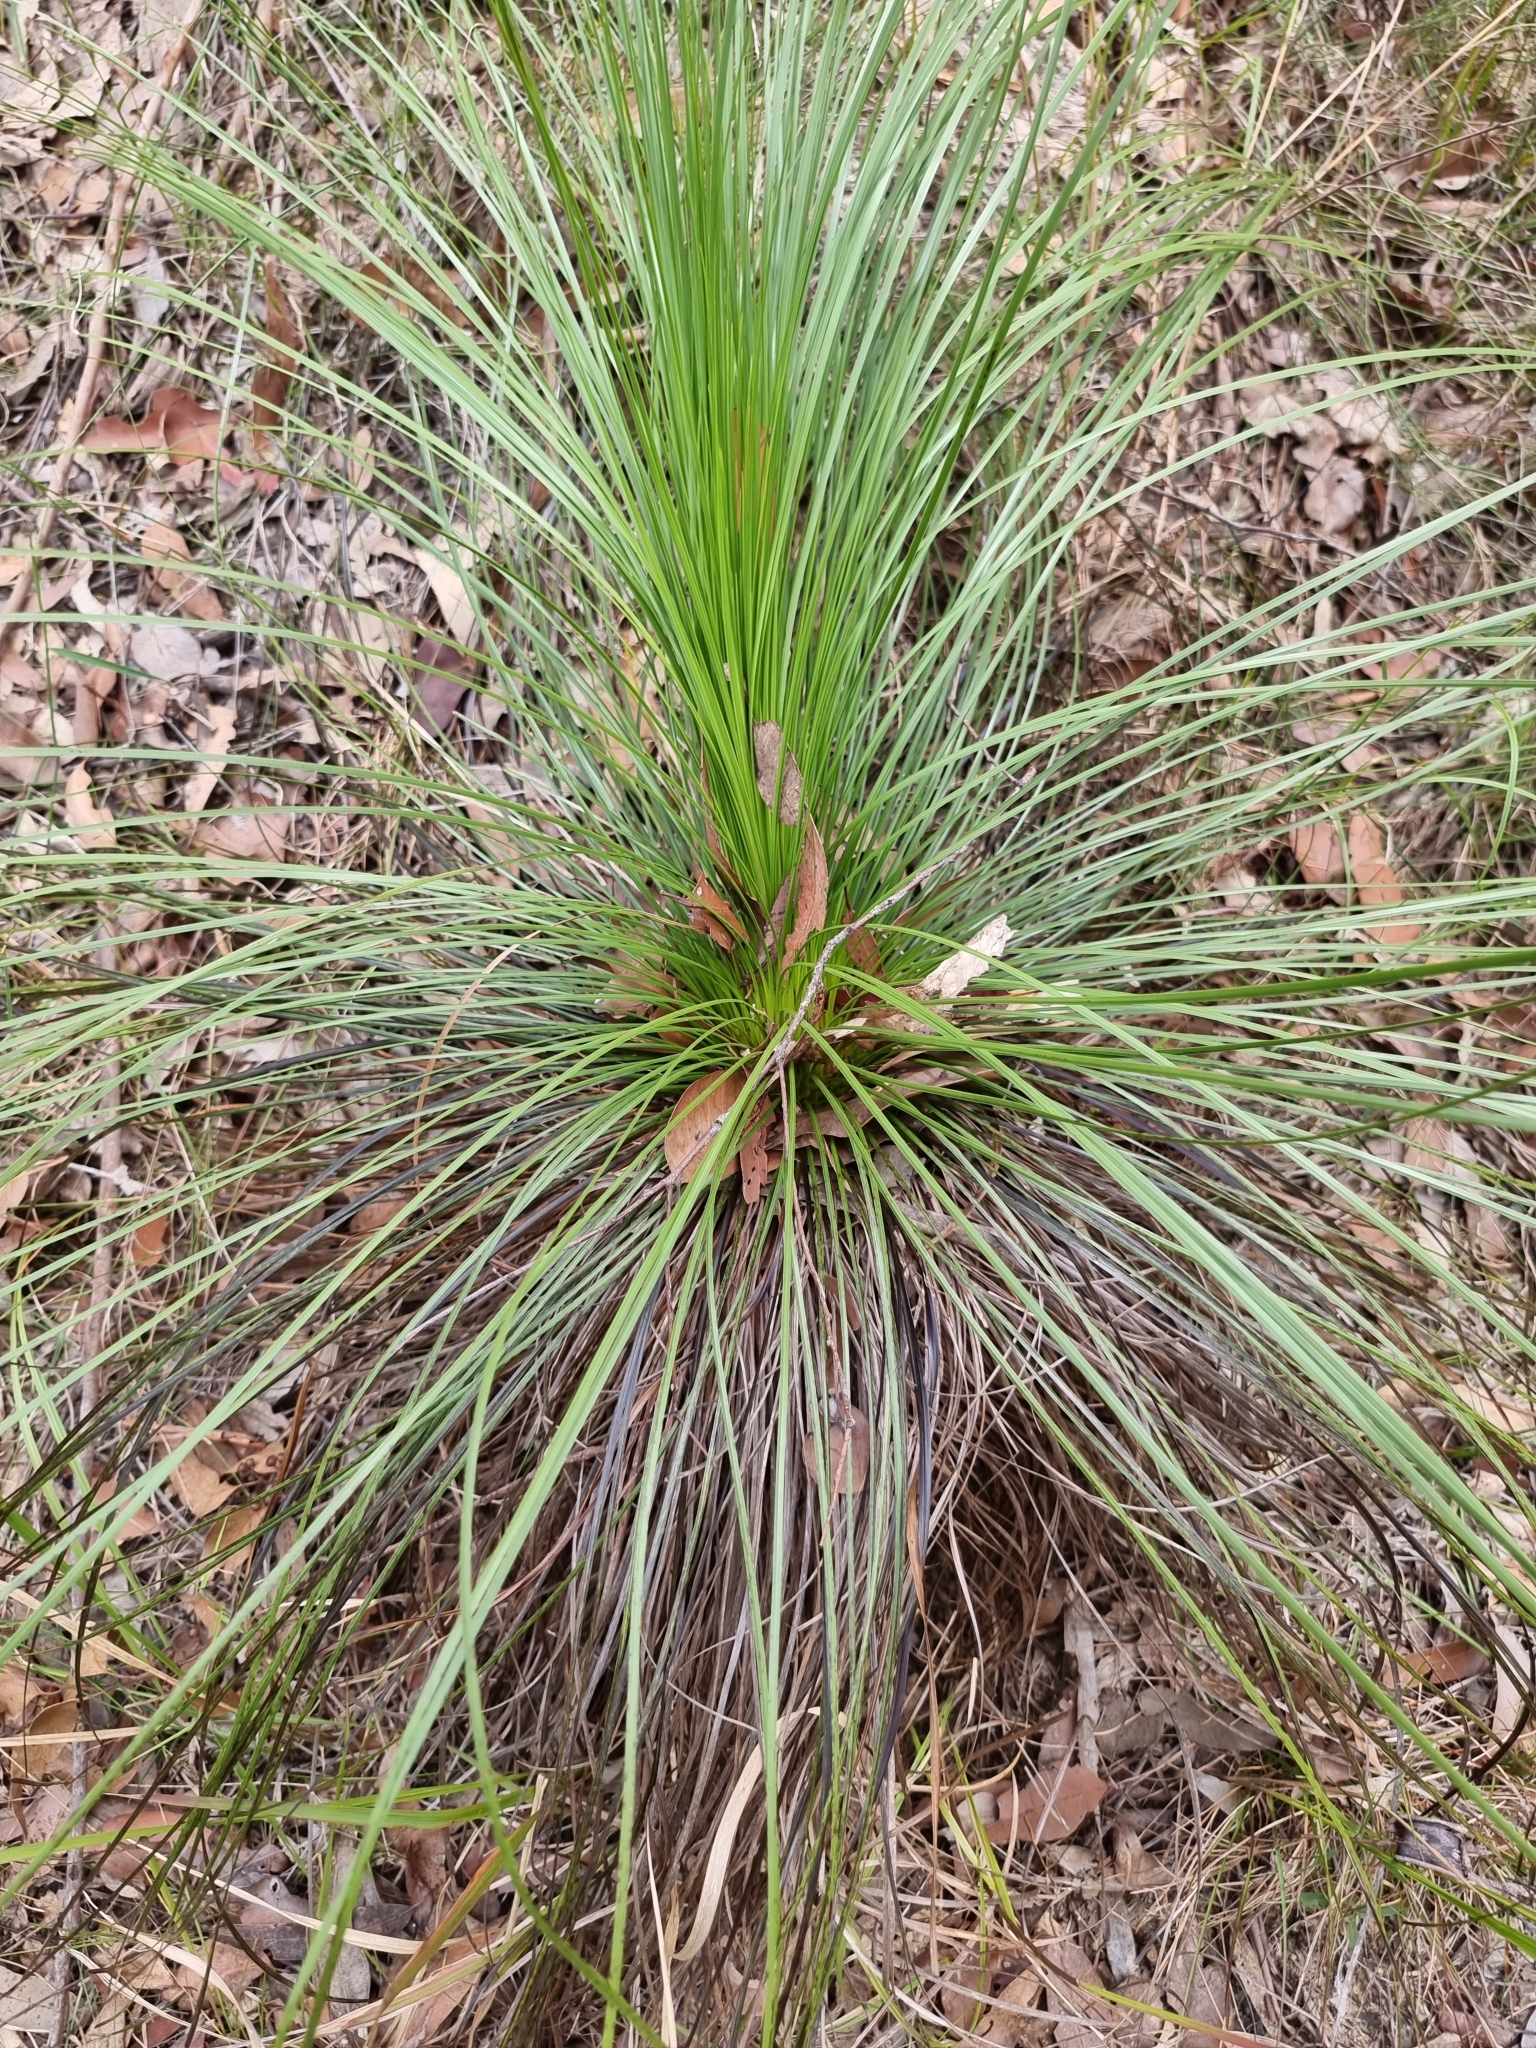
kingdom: Plantae
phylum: Tracheophyta
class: Liliopsida
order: Asparagales
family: Asphodelaceae
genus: Xanthorrhoea
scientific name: Xanthorrhoea latifolia
